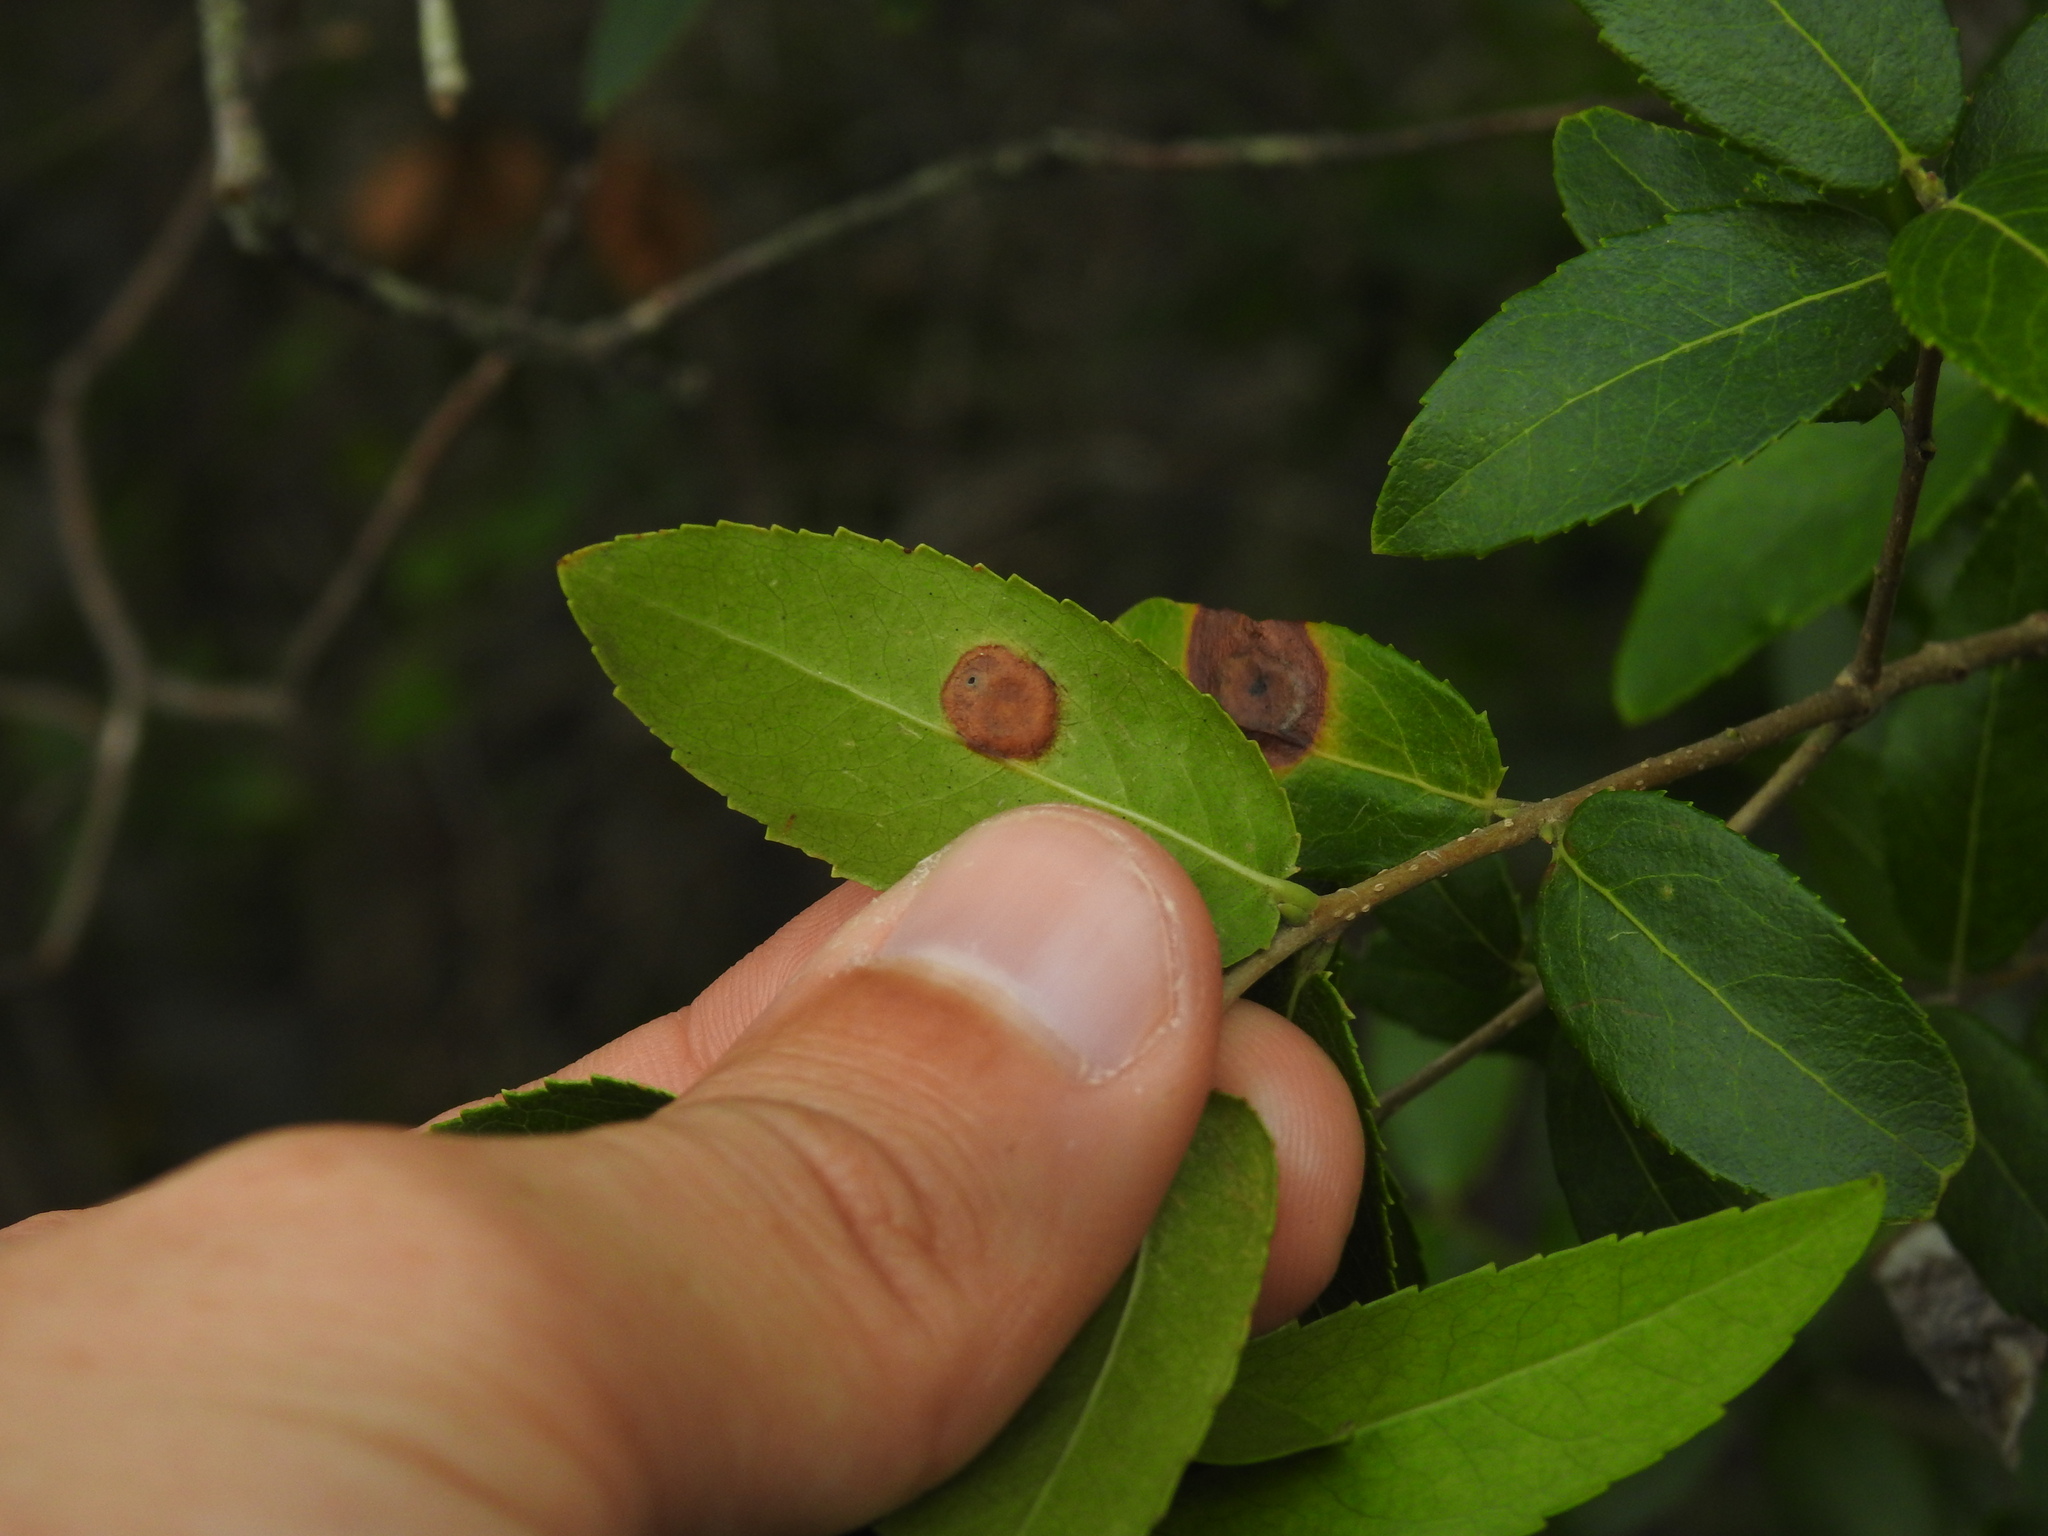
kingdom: Animalia
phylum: Arthropoda
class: Insecta
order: Diptera
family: Cecidomyiidae
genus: Braueriella
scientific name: Braueriella phillyreae
